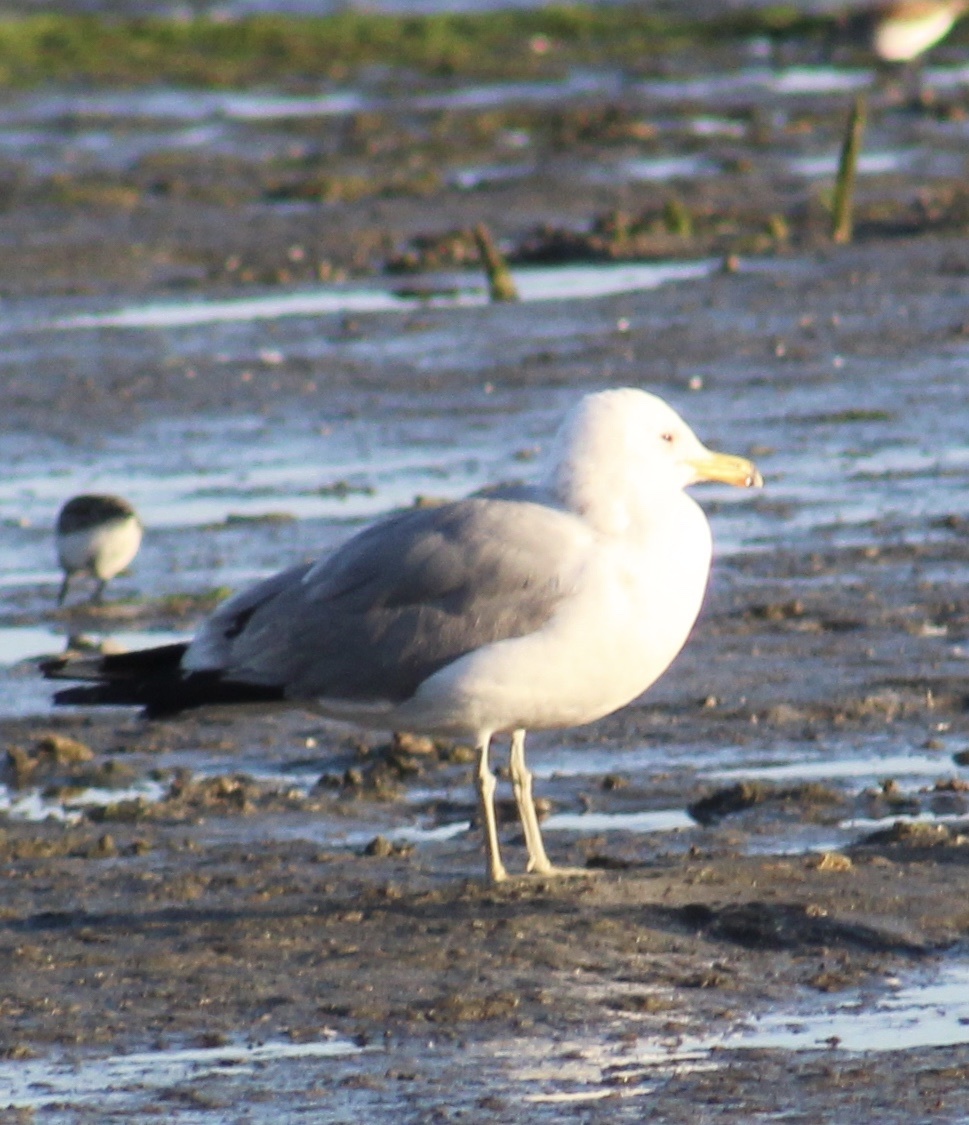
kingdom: Animalia
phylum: Chordata
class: Aves
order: Charadriiformes
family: Laridae
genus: Larus
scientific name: Larus californicus
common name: California gull
